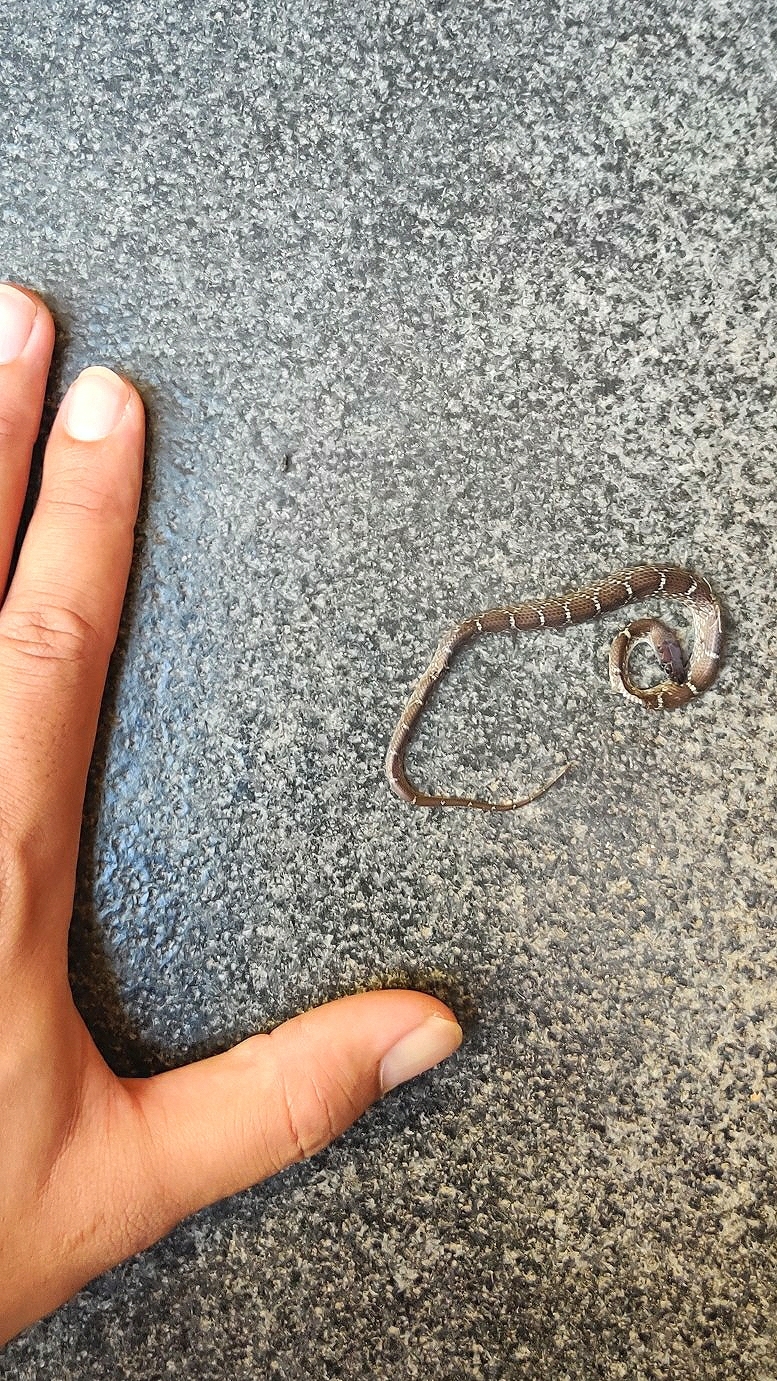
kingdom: Animalia
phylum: Chordata
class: Squamata
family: Colubridae
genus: Lycodon
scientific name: Lycodon fasciolatus
